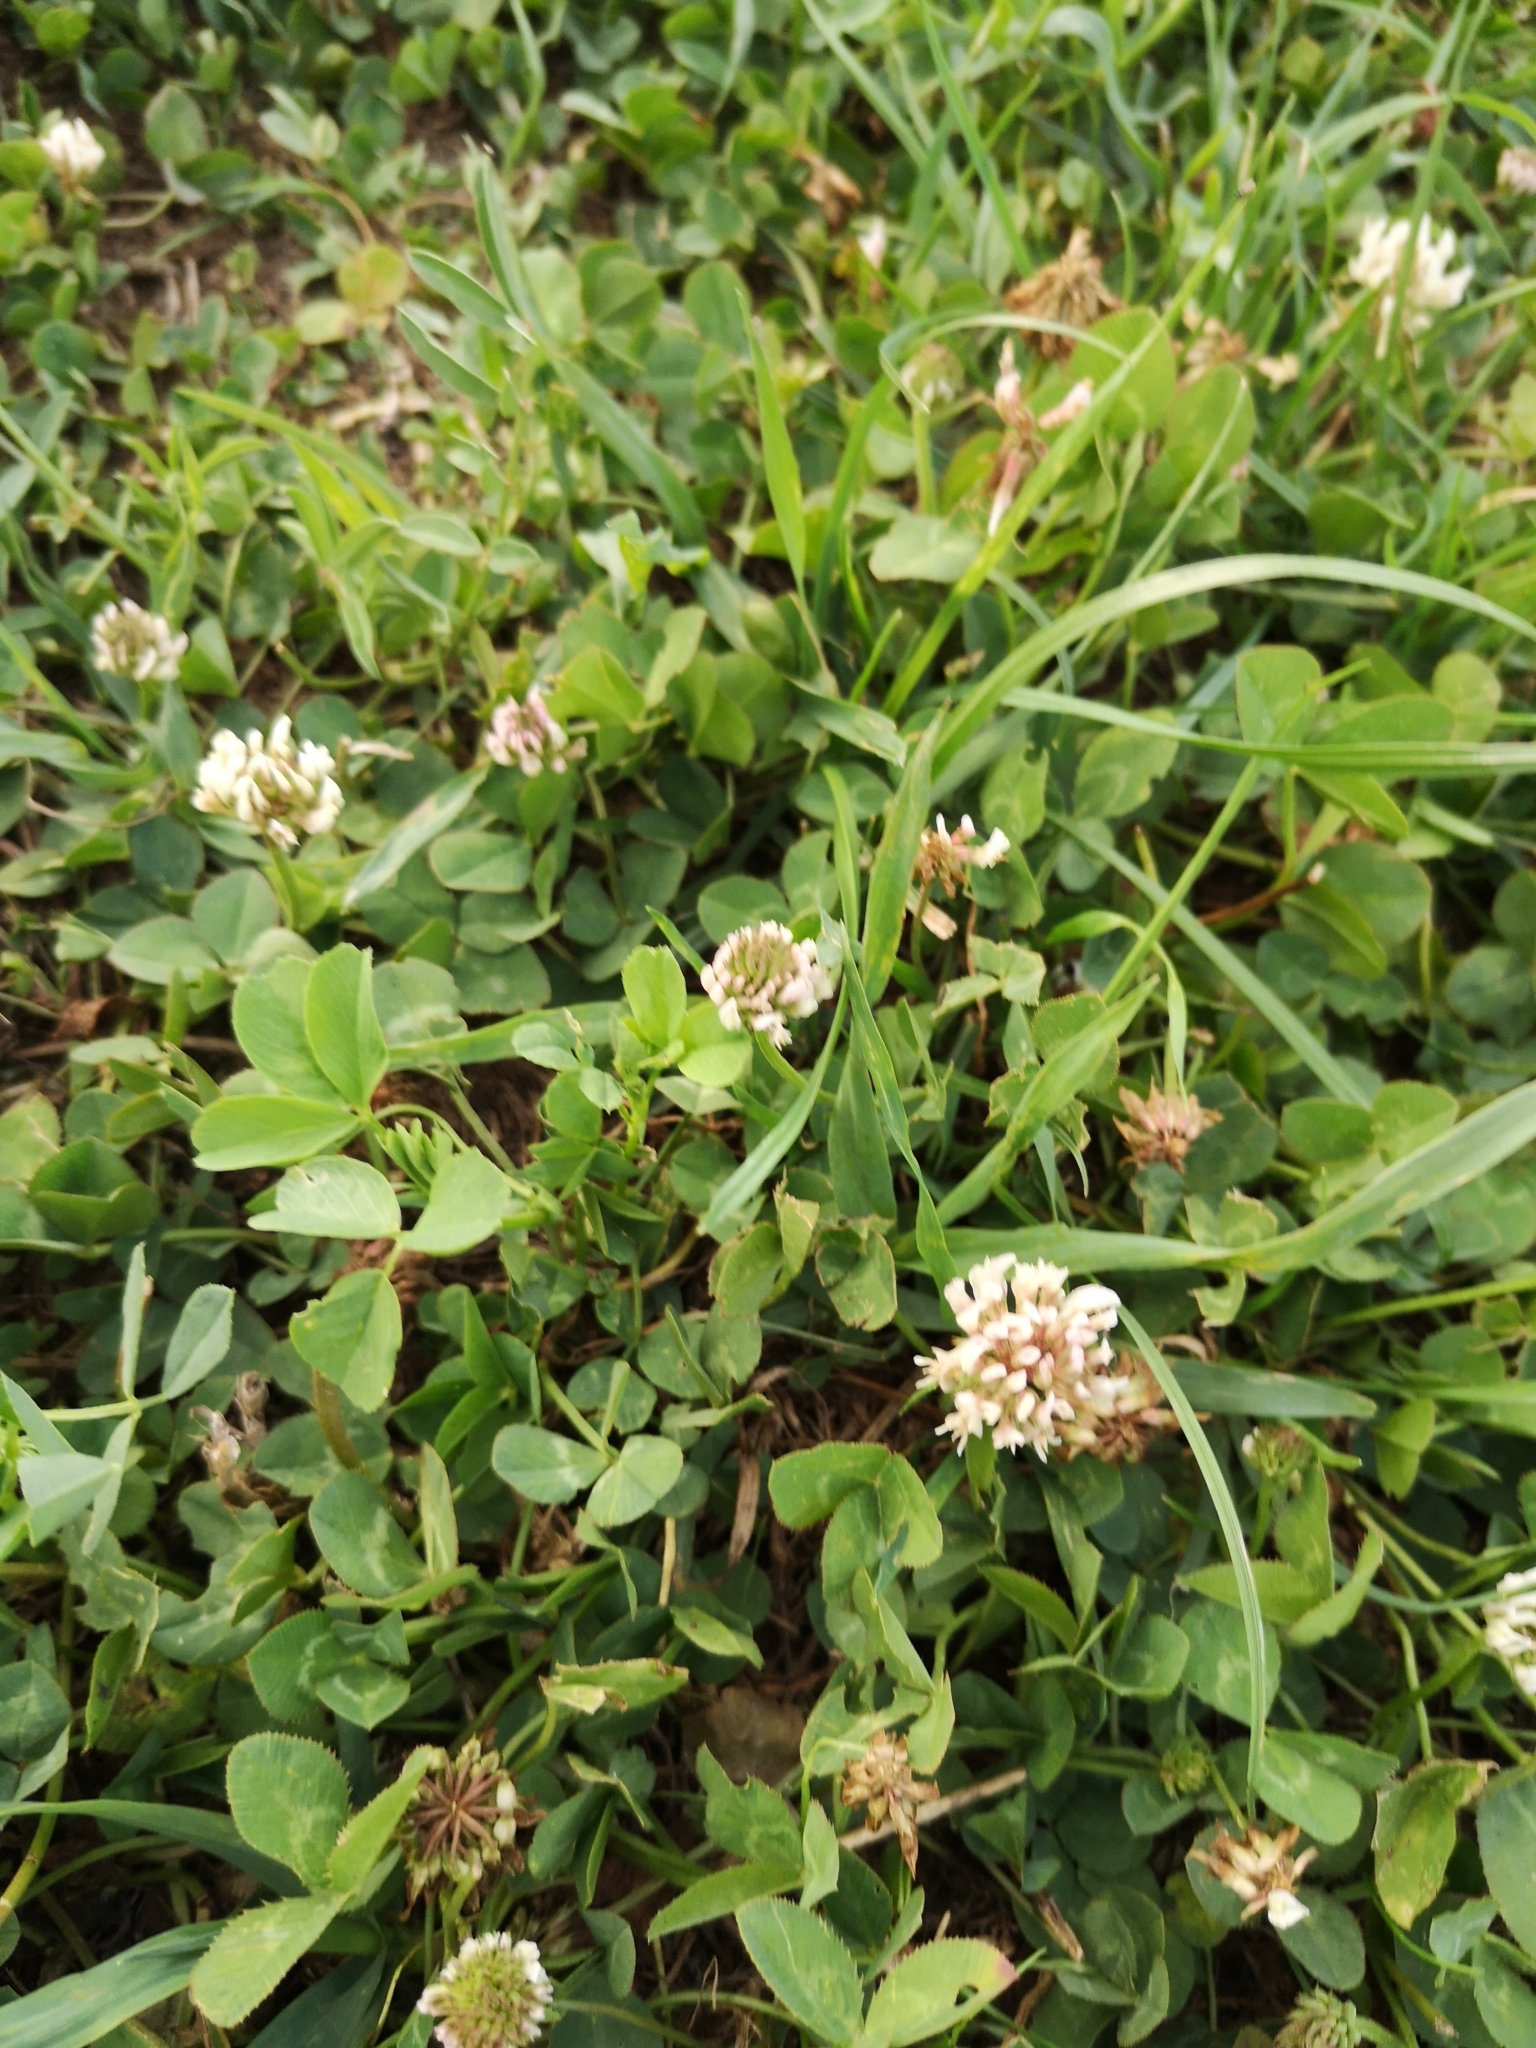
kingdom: Plantae
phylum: Tracheophyta
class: Magnoliopsida
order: Fabales
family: Fabaceae
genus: Trifolium
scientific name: Trifolium repens
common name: White clover
